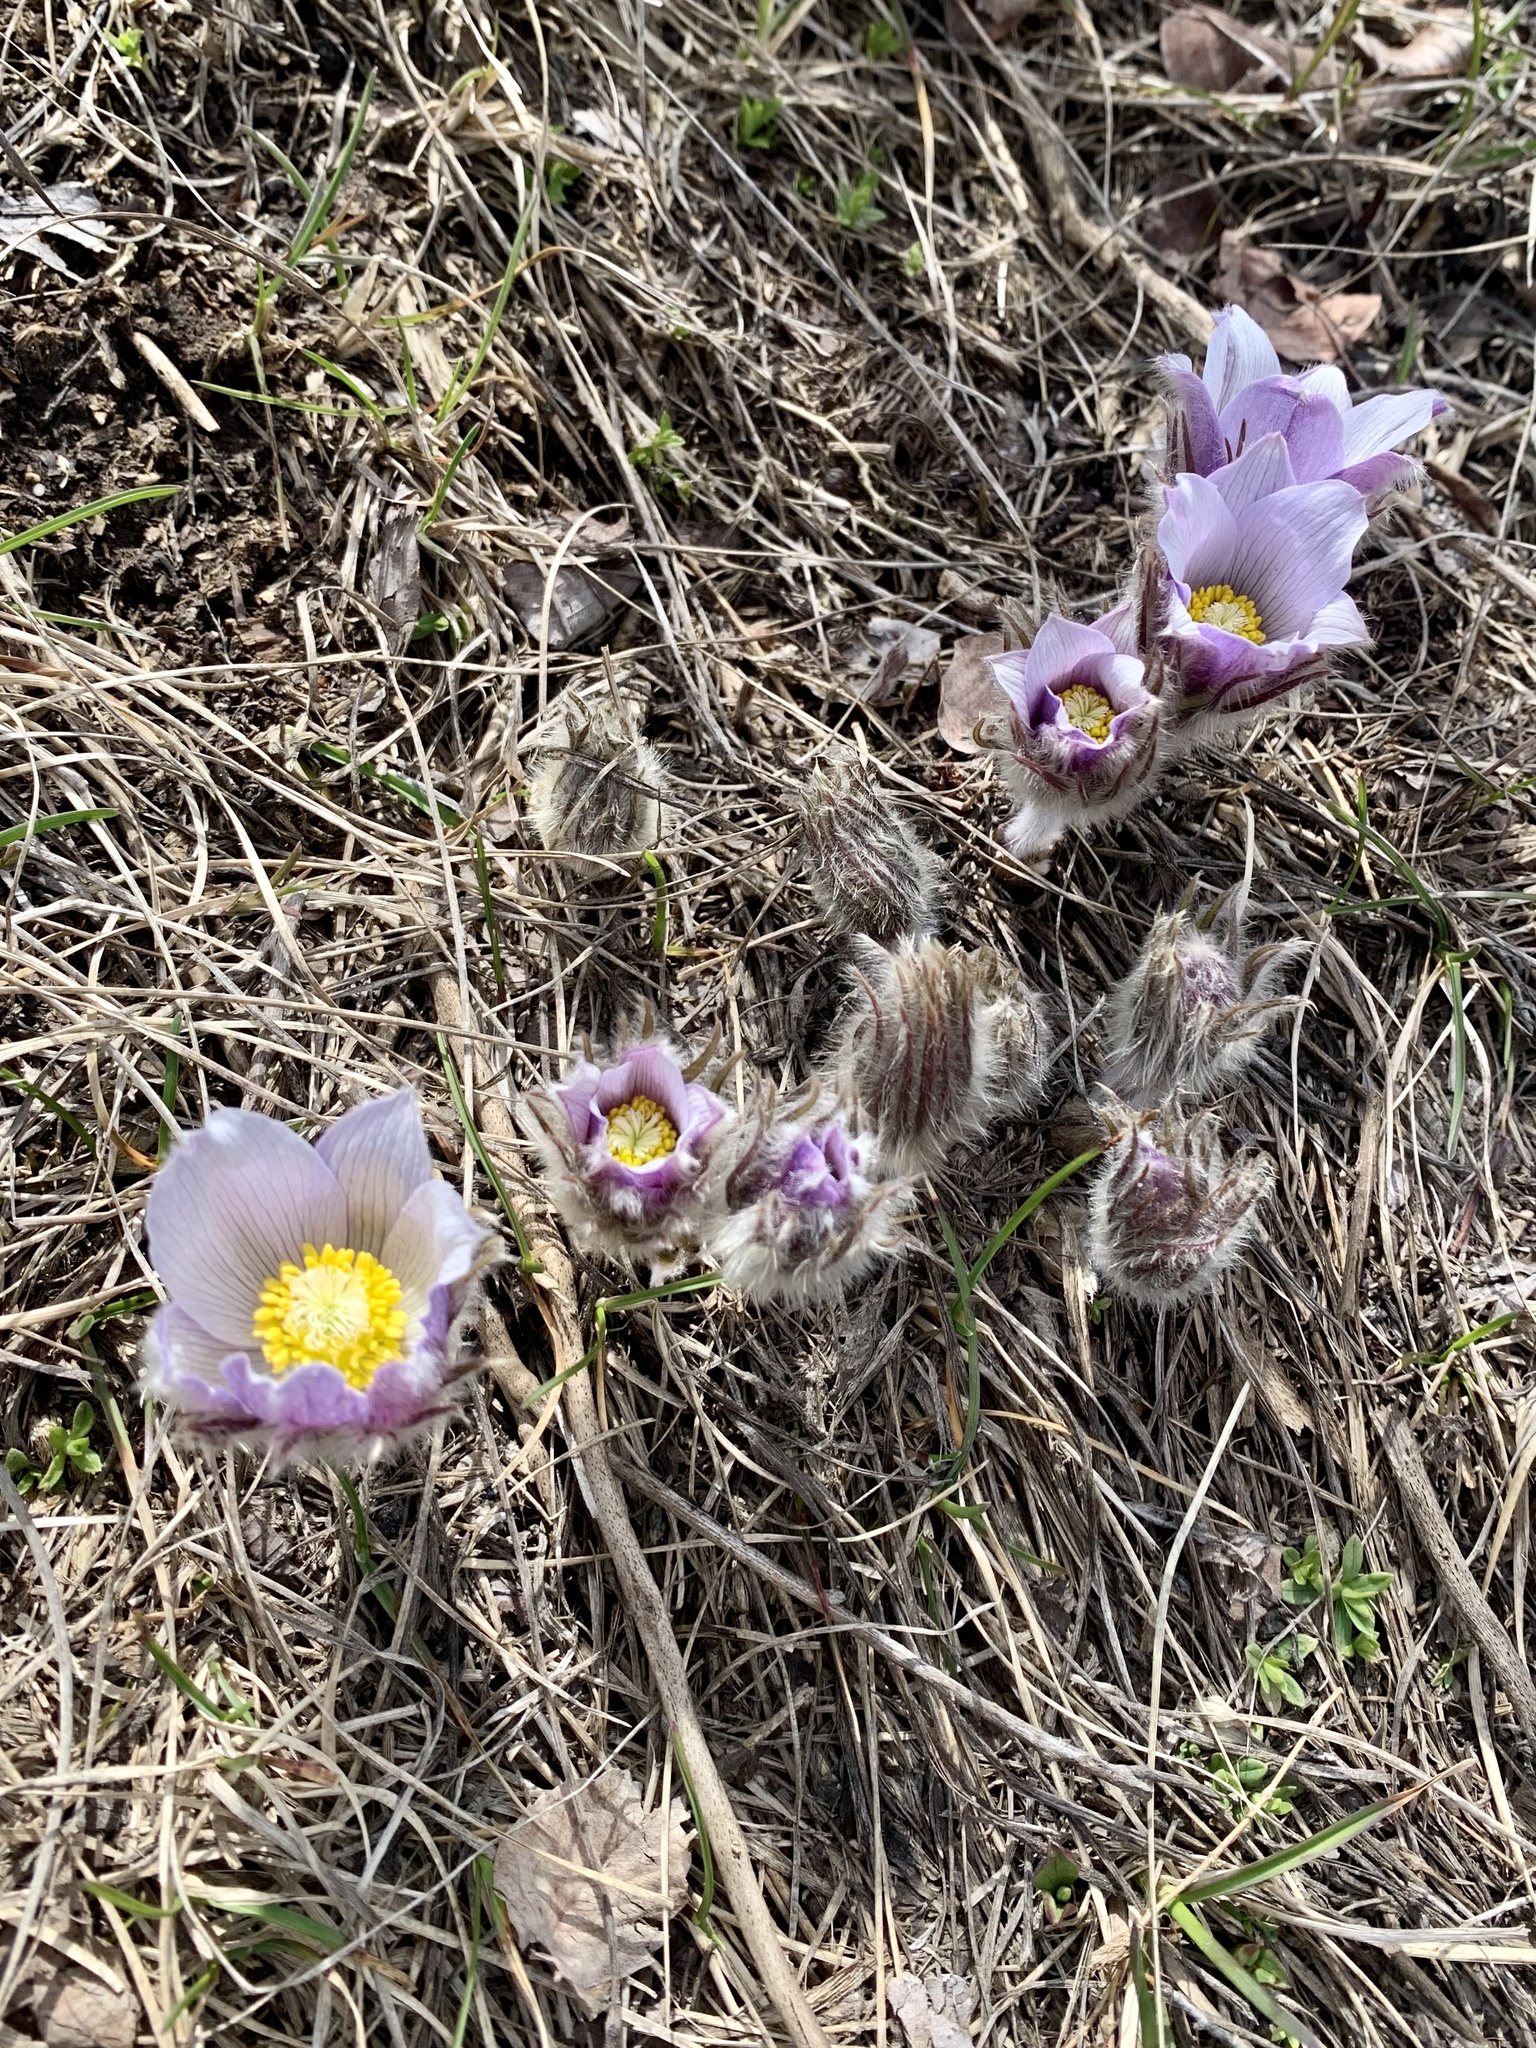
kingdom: Plantae
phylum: Tracheophyta
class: Magnoliopsida
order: Ranunculales
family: Ranunculaceae
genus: Pulsatilla
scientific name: Pulsatilla nuttalliana
